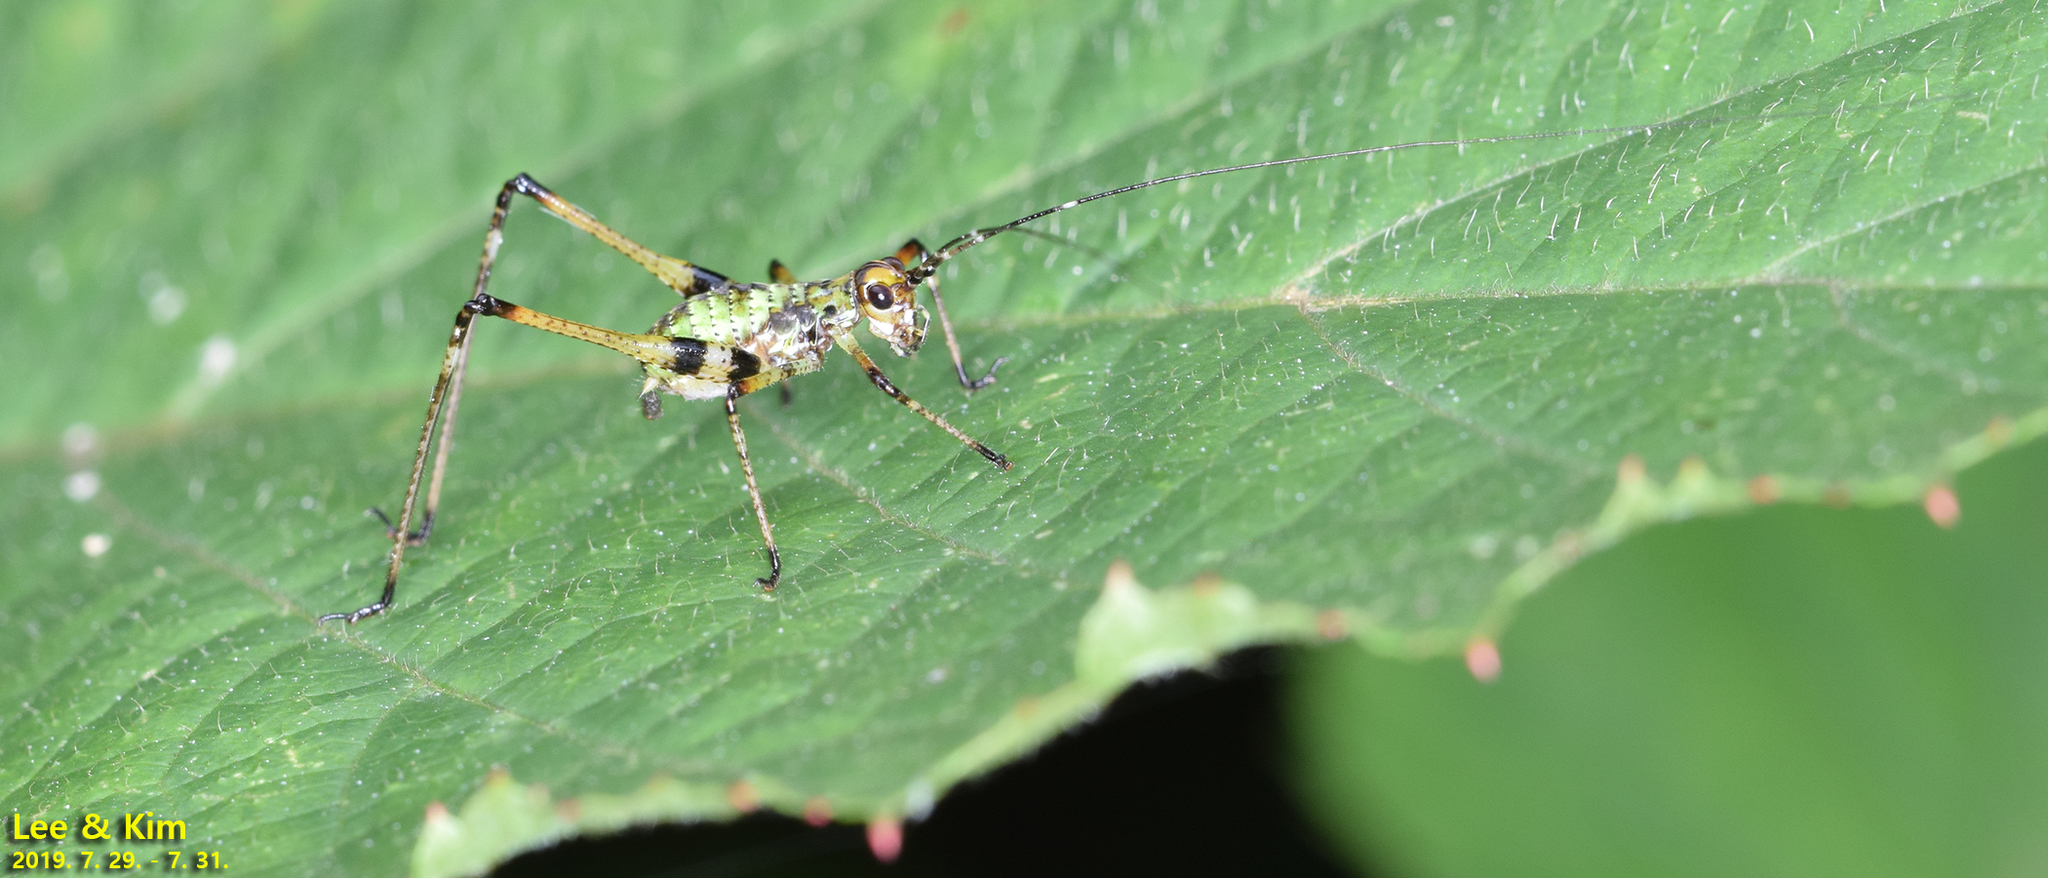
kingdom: Animalia
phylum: Arthropoda
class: Insecta
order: Orthoptera
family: Tettigoniidae
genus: Phaneroptera
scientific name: Phaneroptera nigroantennata
